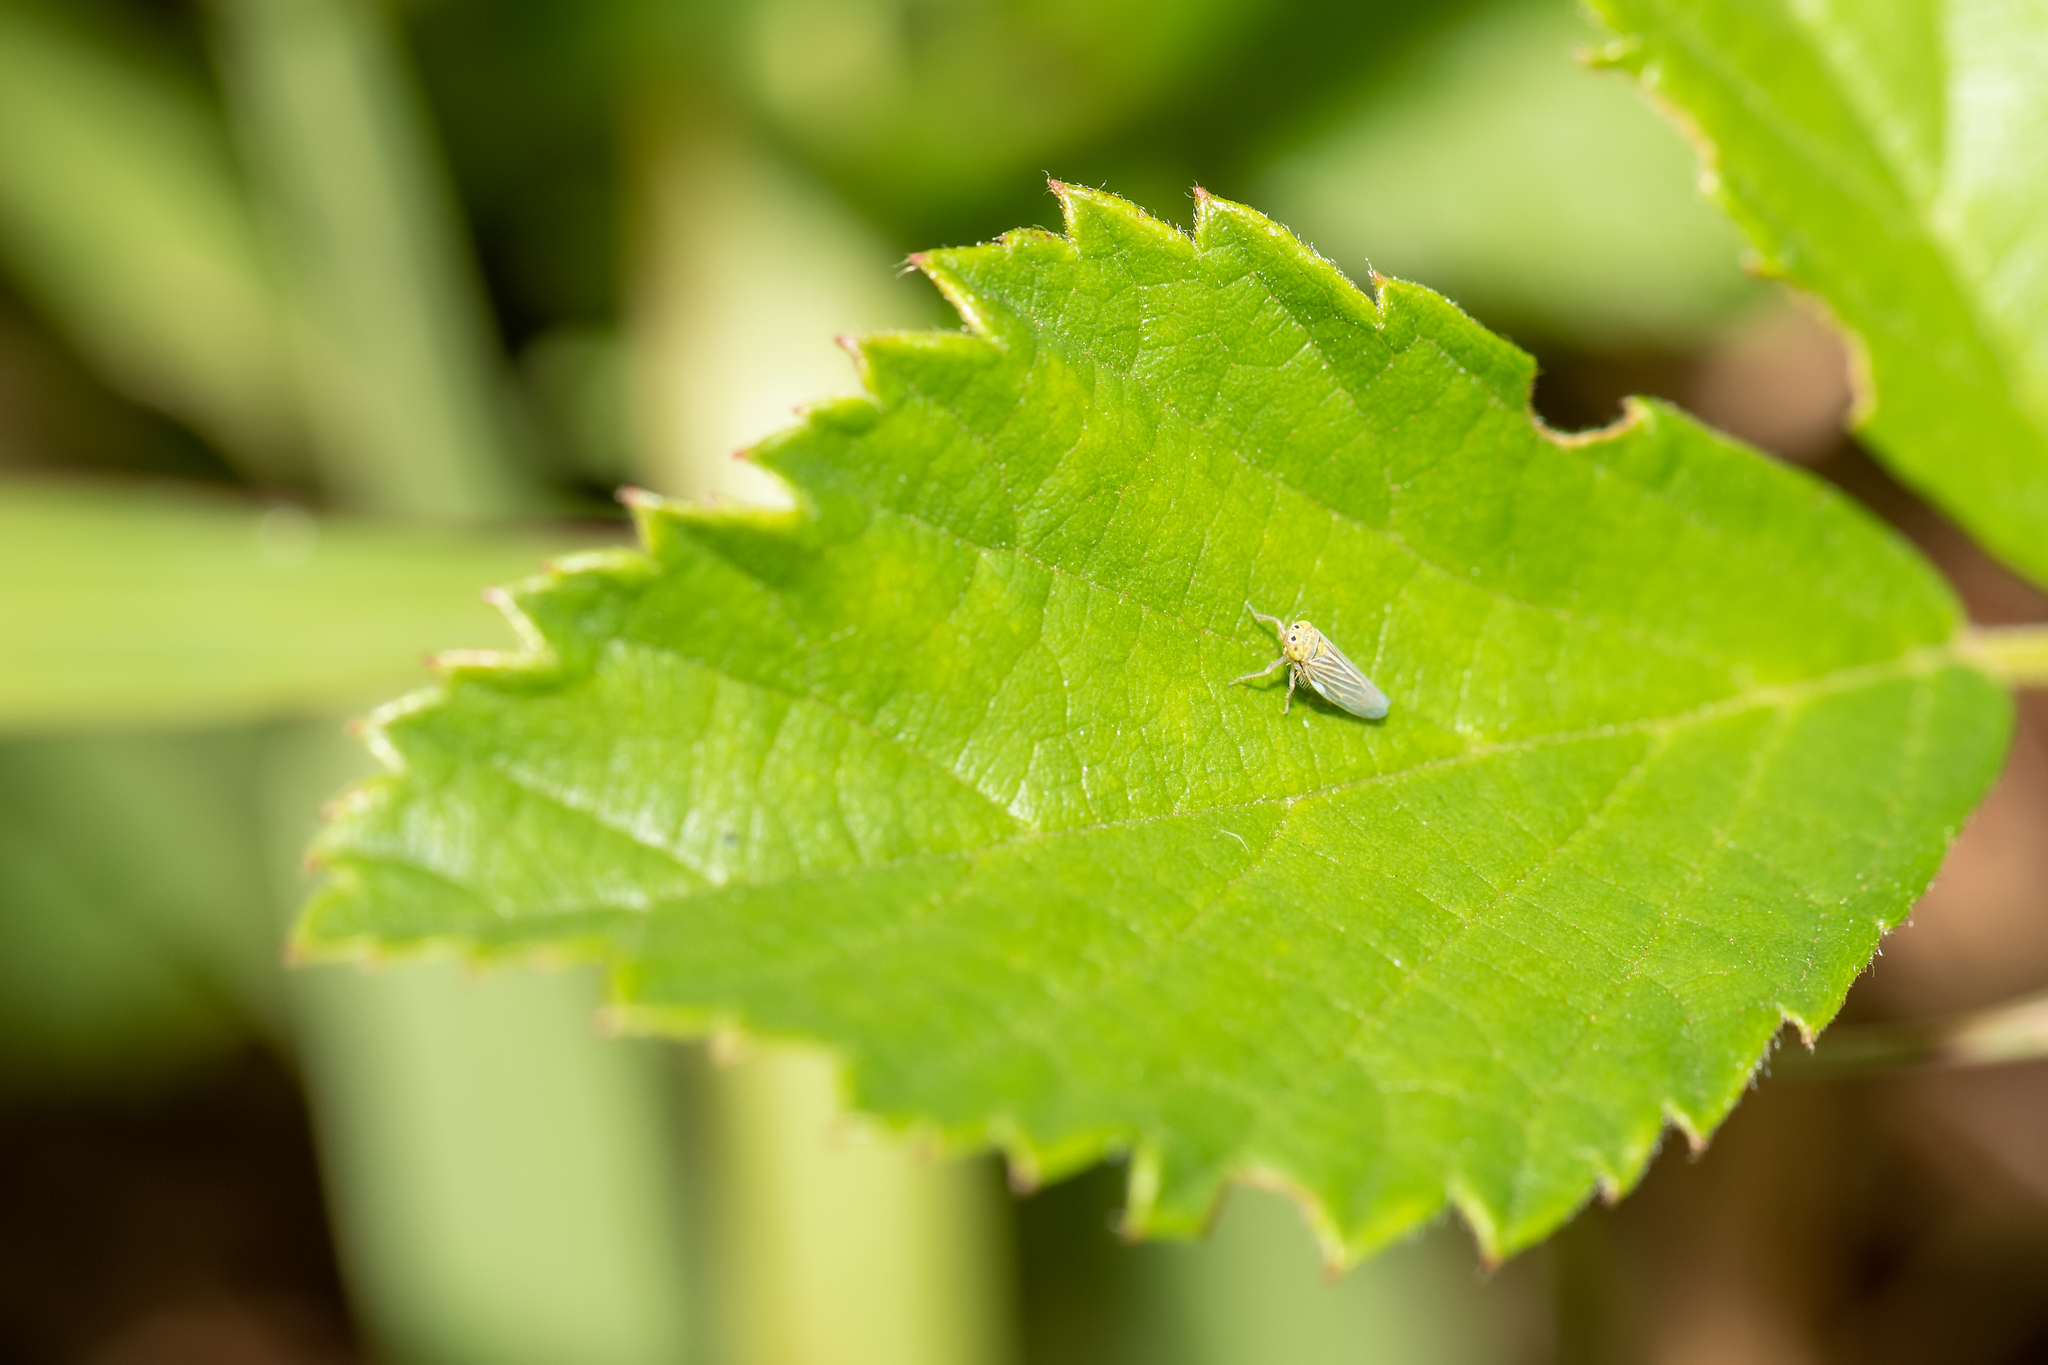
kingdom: Animalia
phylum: Arthropoda
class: Insecta
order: Hemiptera
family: Cicadellidae
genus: Graminella
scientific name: Graminella cognita
